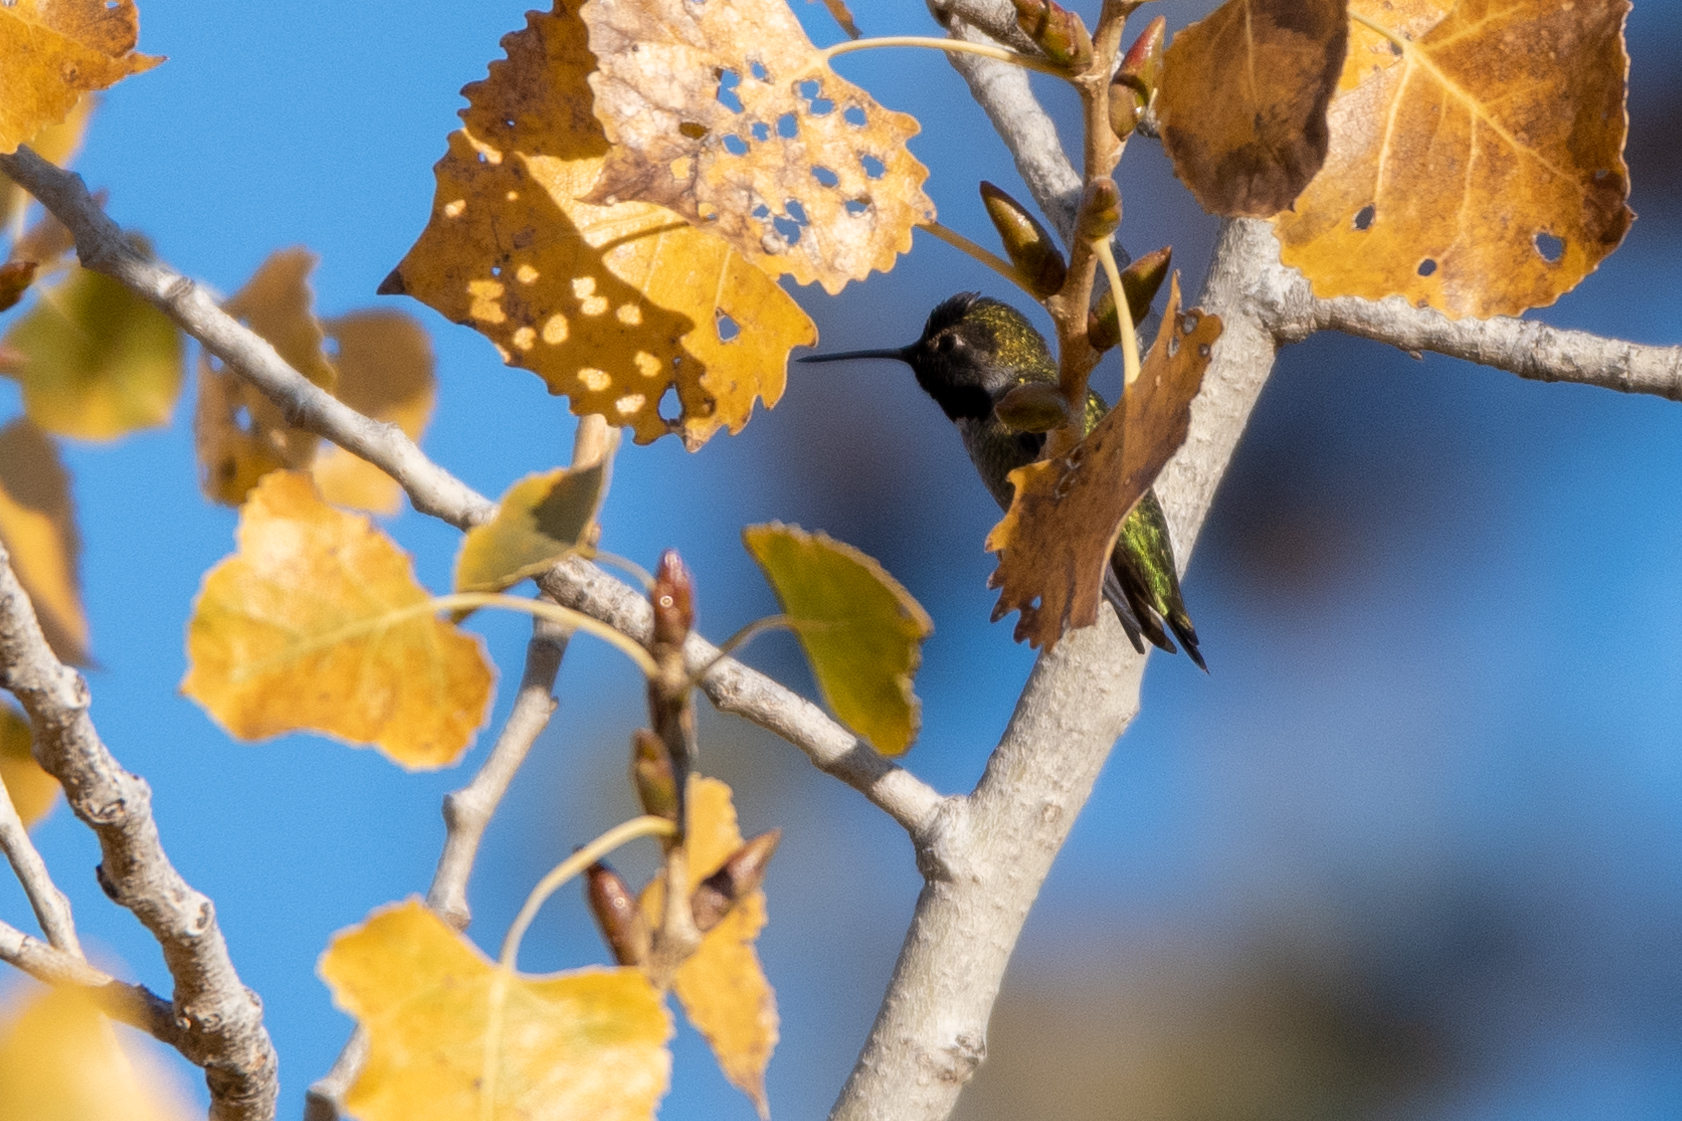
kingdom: Animalia
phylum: Chordata
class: Aves
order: Apodiformes
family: Trochilidae
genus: Calypte
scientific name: Calypte anna
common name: Anna's hummingbird
